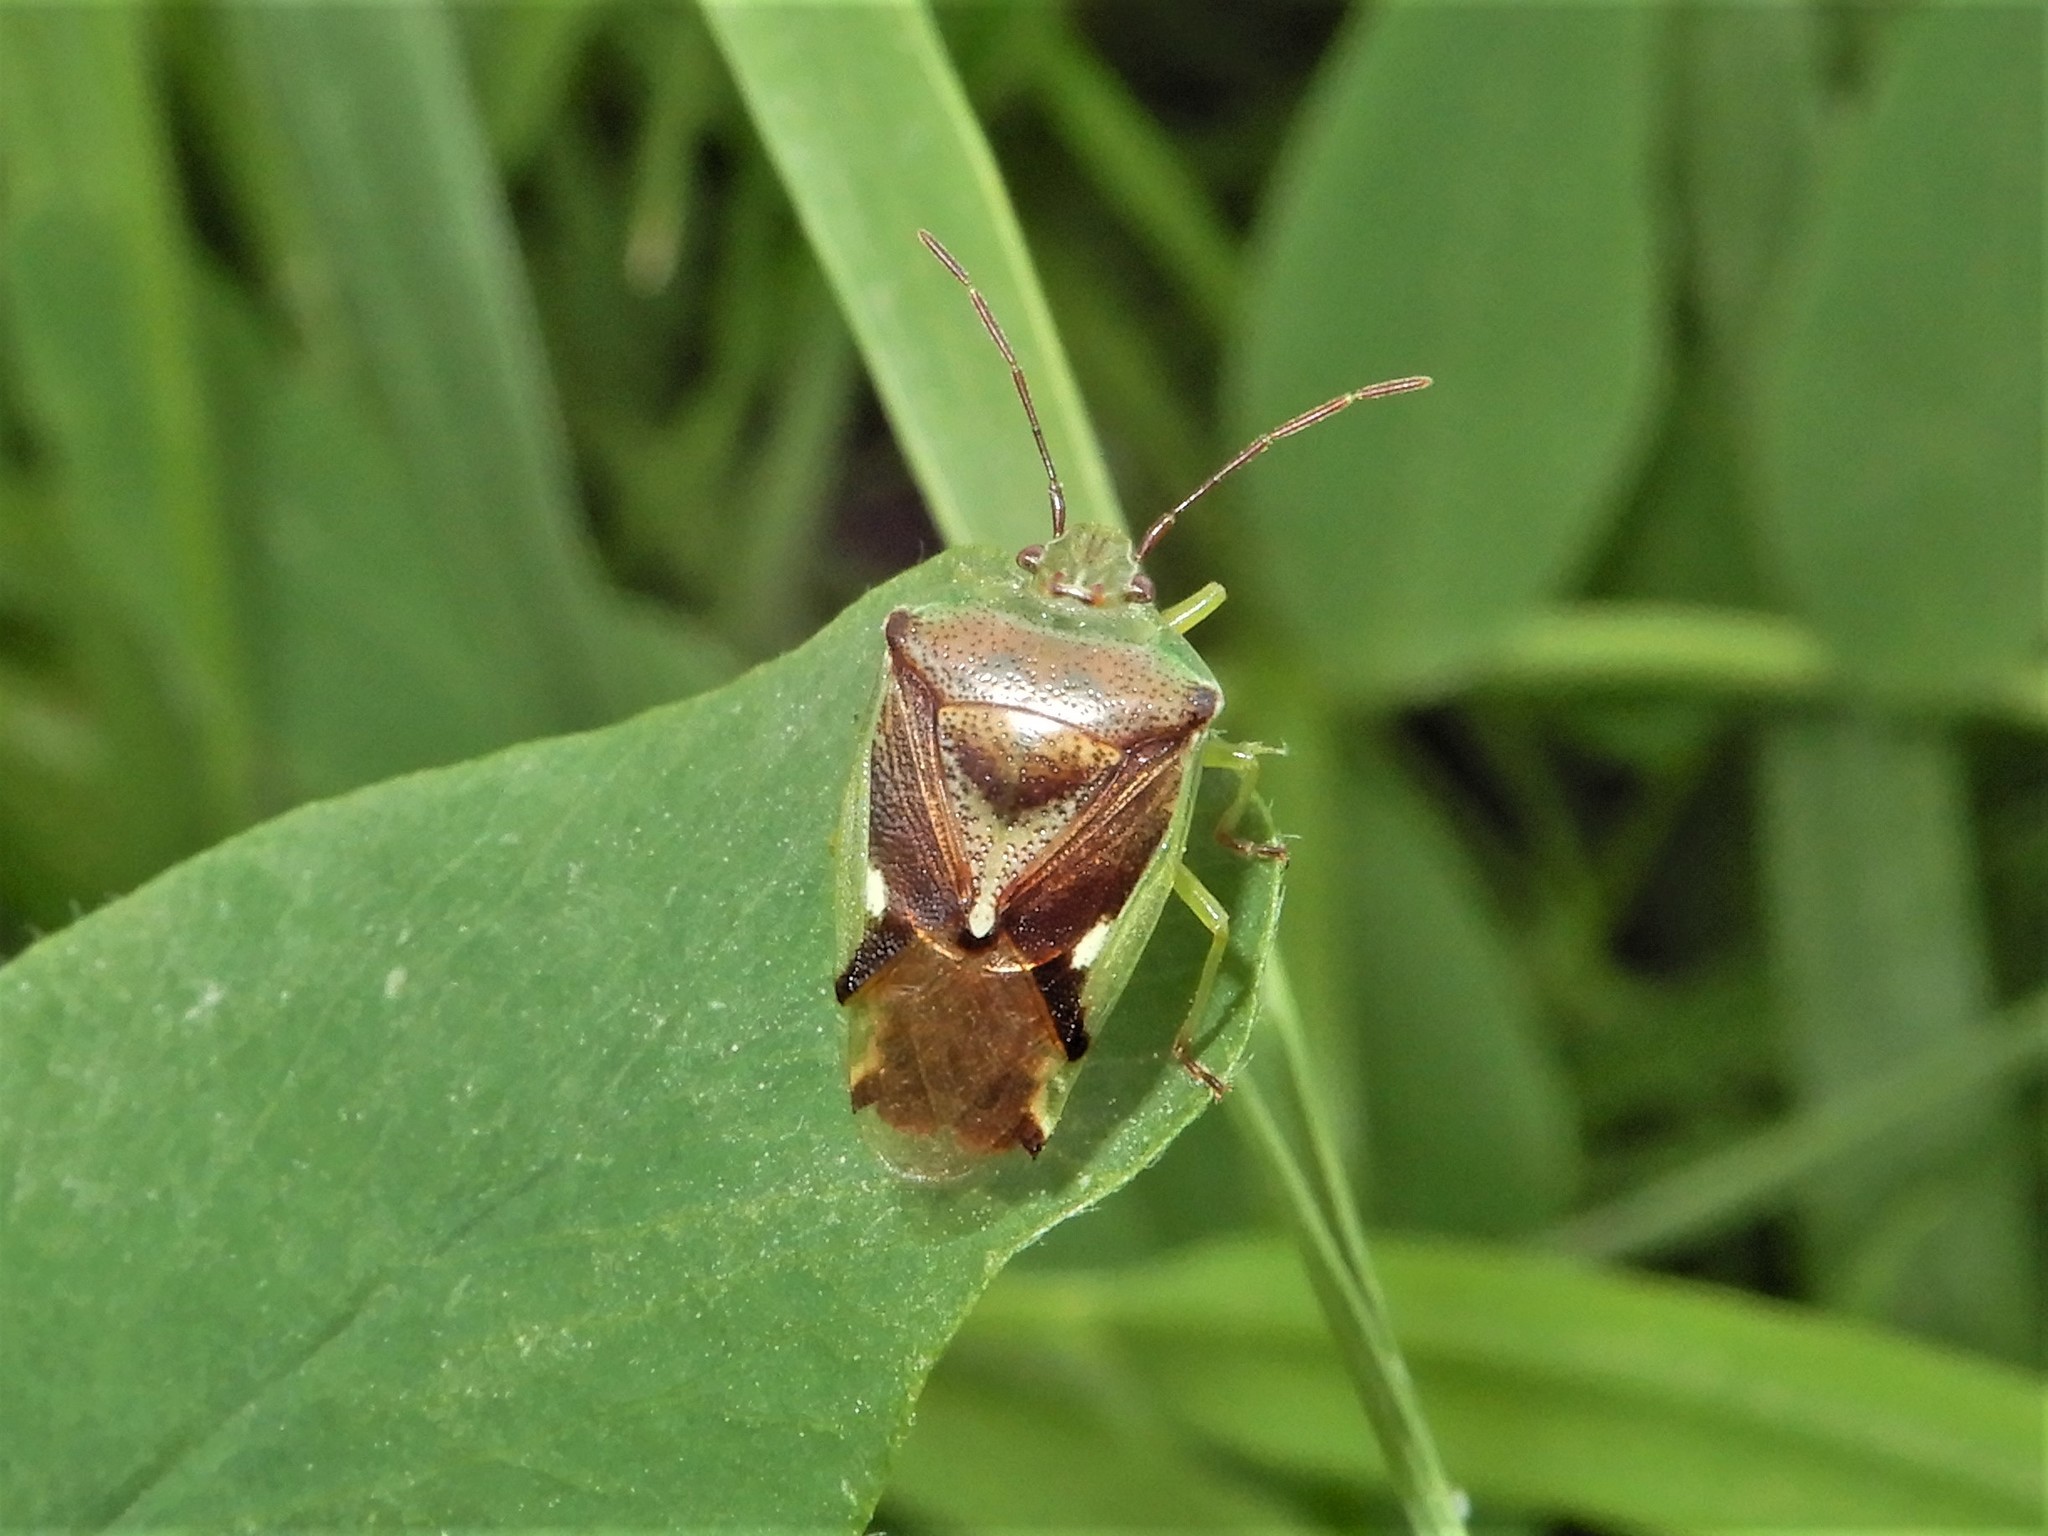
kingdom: Animalia
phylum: Arthropoda
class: Insecta
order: Hemiptera
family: Acanthosomatidae
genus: Oncacontias
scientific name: Oncacontias vittatus
